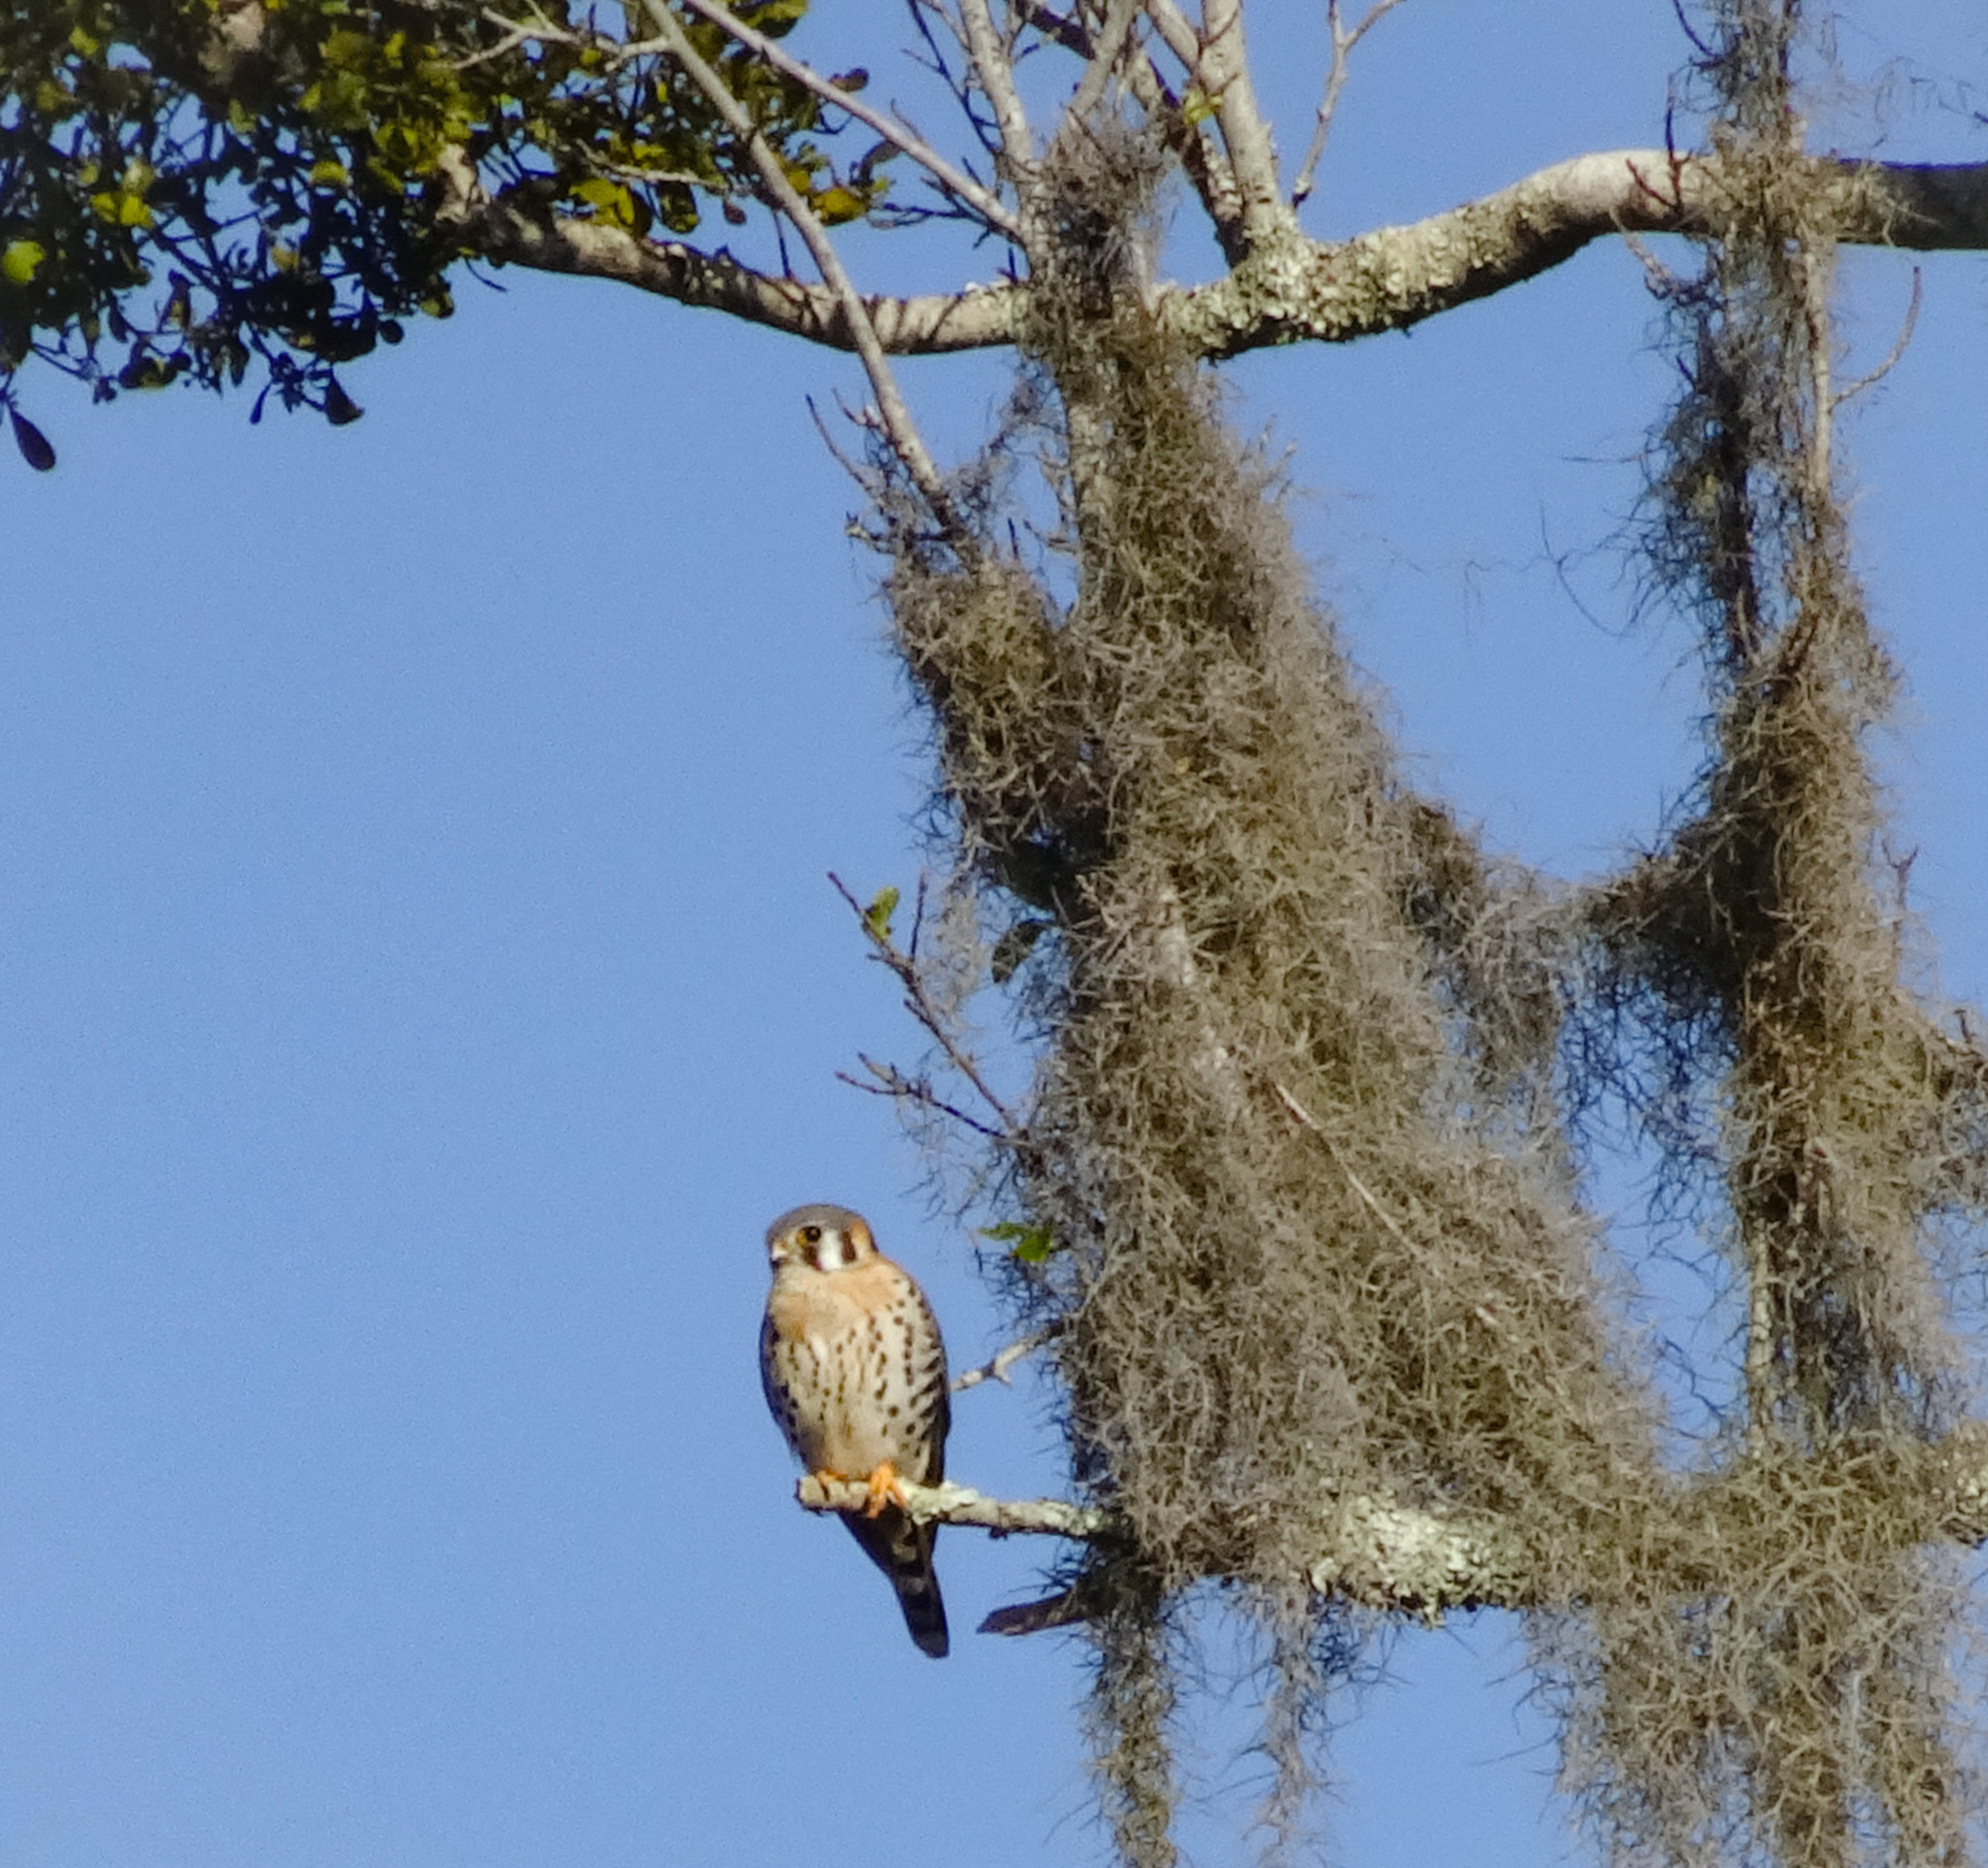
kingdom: Animalia
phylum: Chordata
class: Aves
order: Falconiformes
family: Falconidae
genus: Falco
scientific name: Falco sparverius
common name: American kestrel
